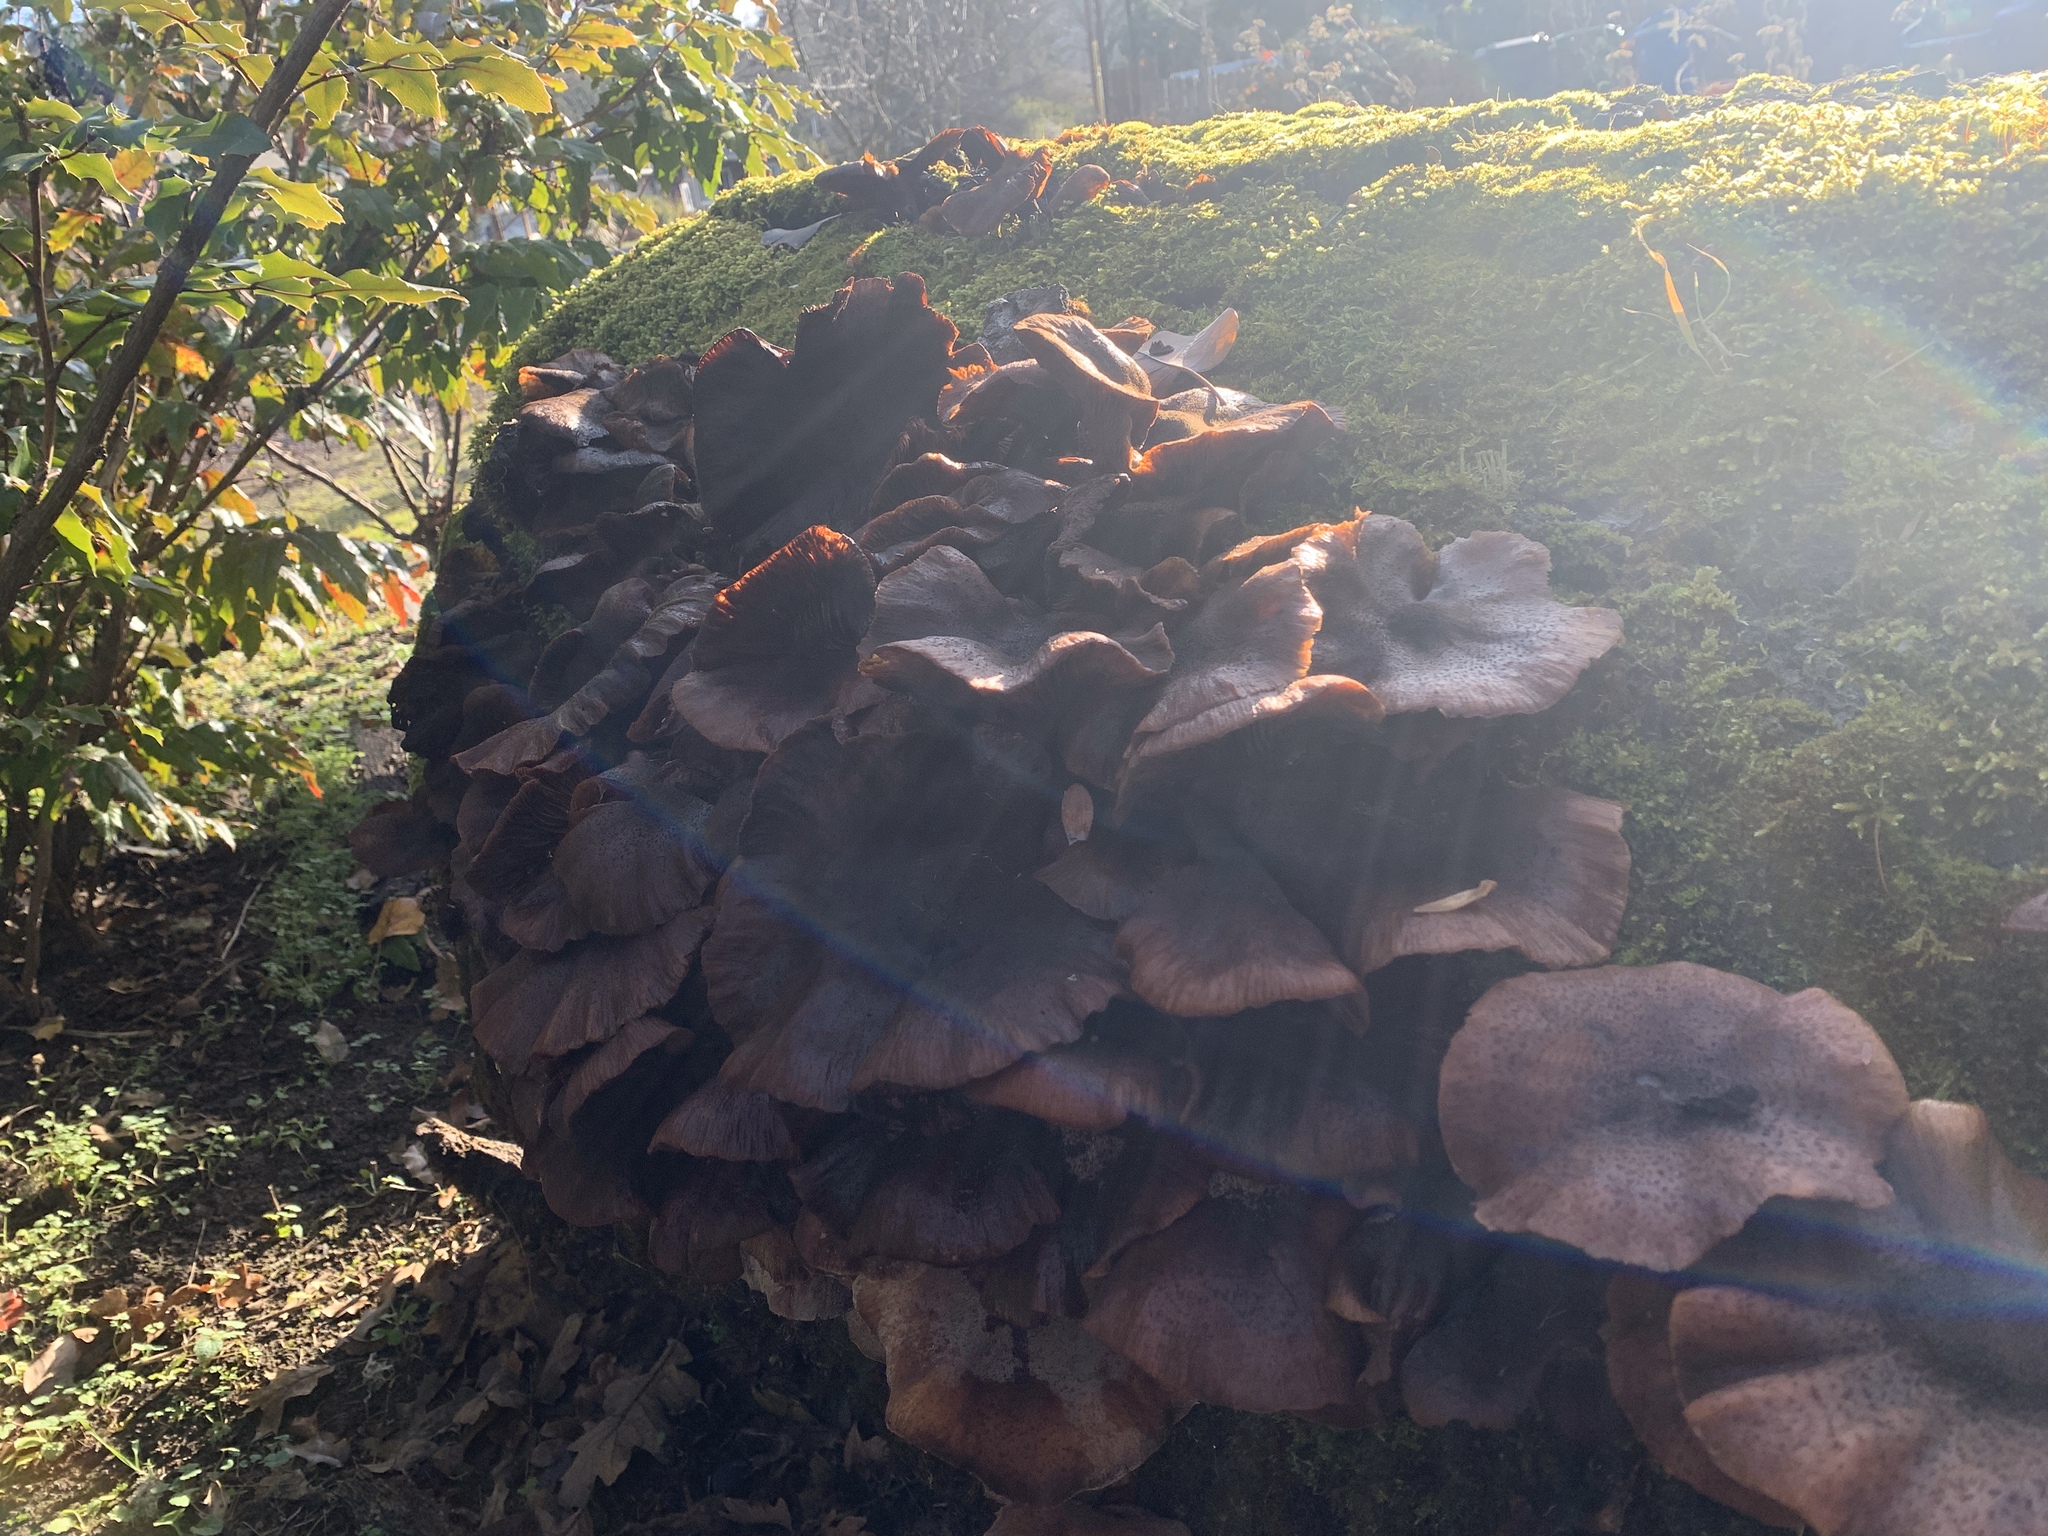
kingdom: Fungi
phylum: Basidiomycota
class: Agaricomycetes
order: Agaricales
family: Physalacriaceae
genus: Armillaria
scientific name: Armillaria mellea
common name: Honey fungus
